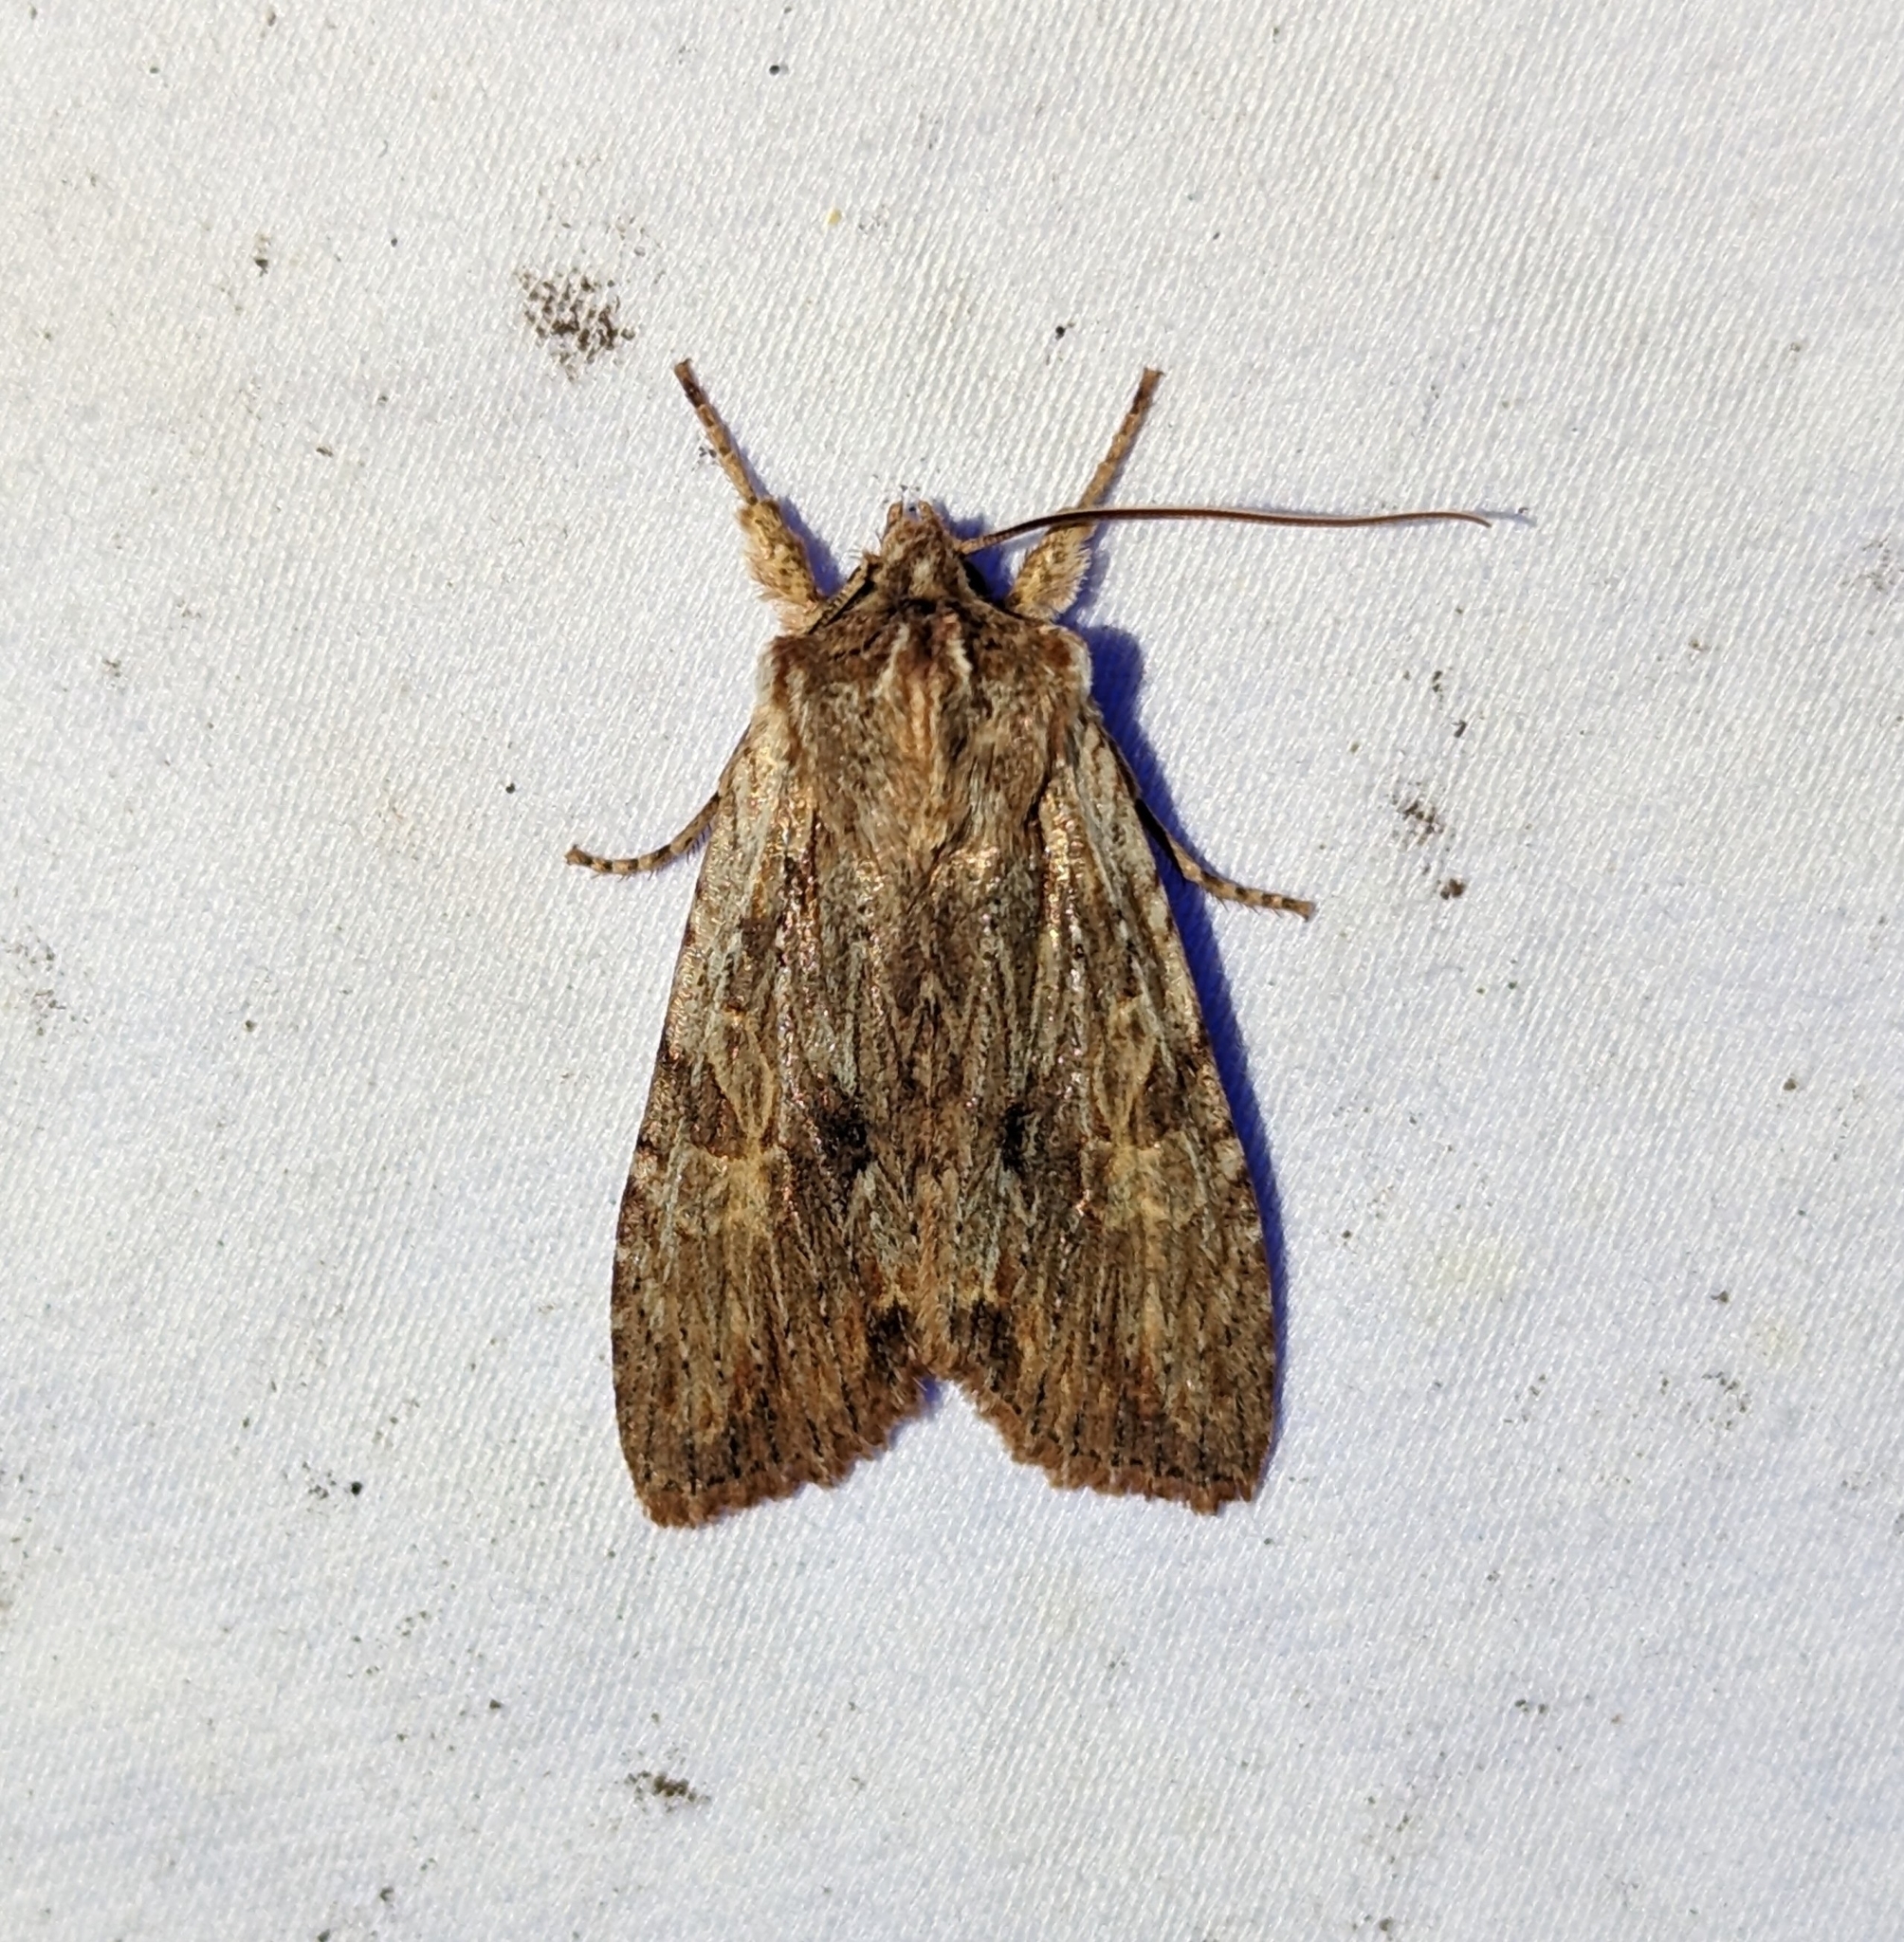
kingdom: Animalia
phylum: Arthropoda
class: Insecta
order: Lepidoptera
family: Noctuidae
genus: Lithophane
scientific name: Lithophane petulca
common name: Wanton pinion
